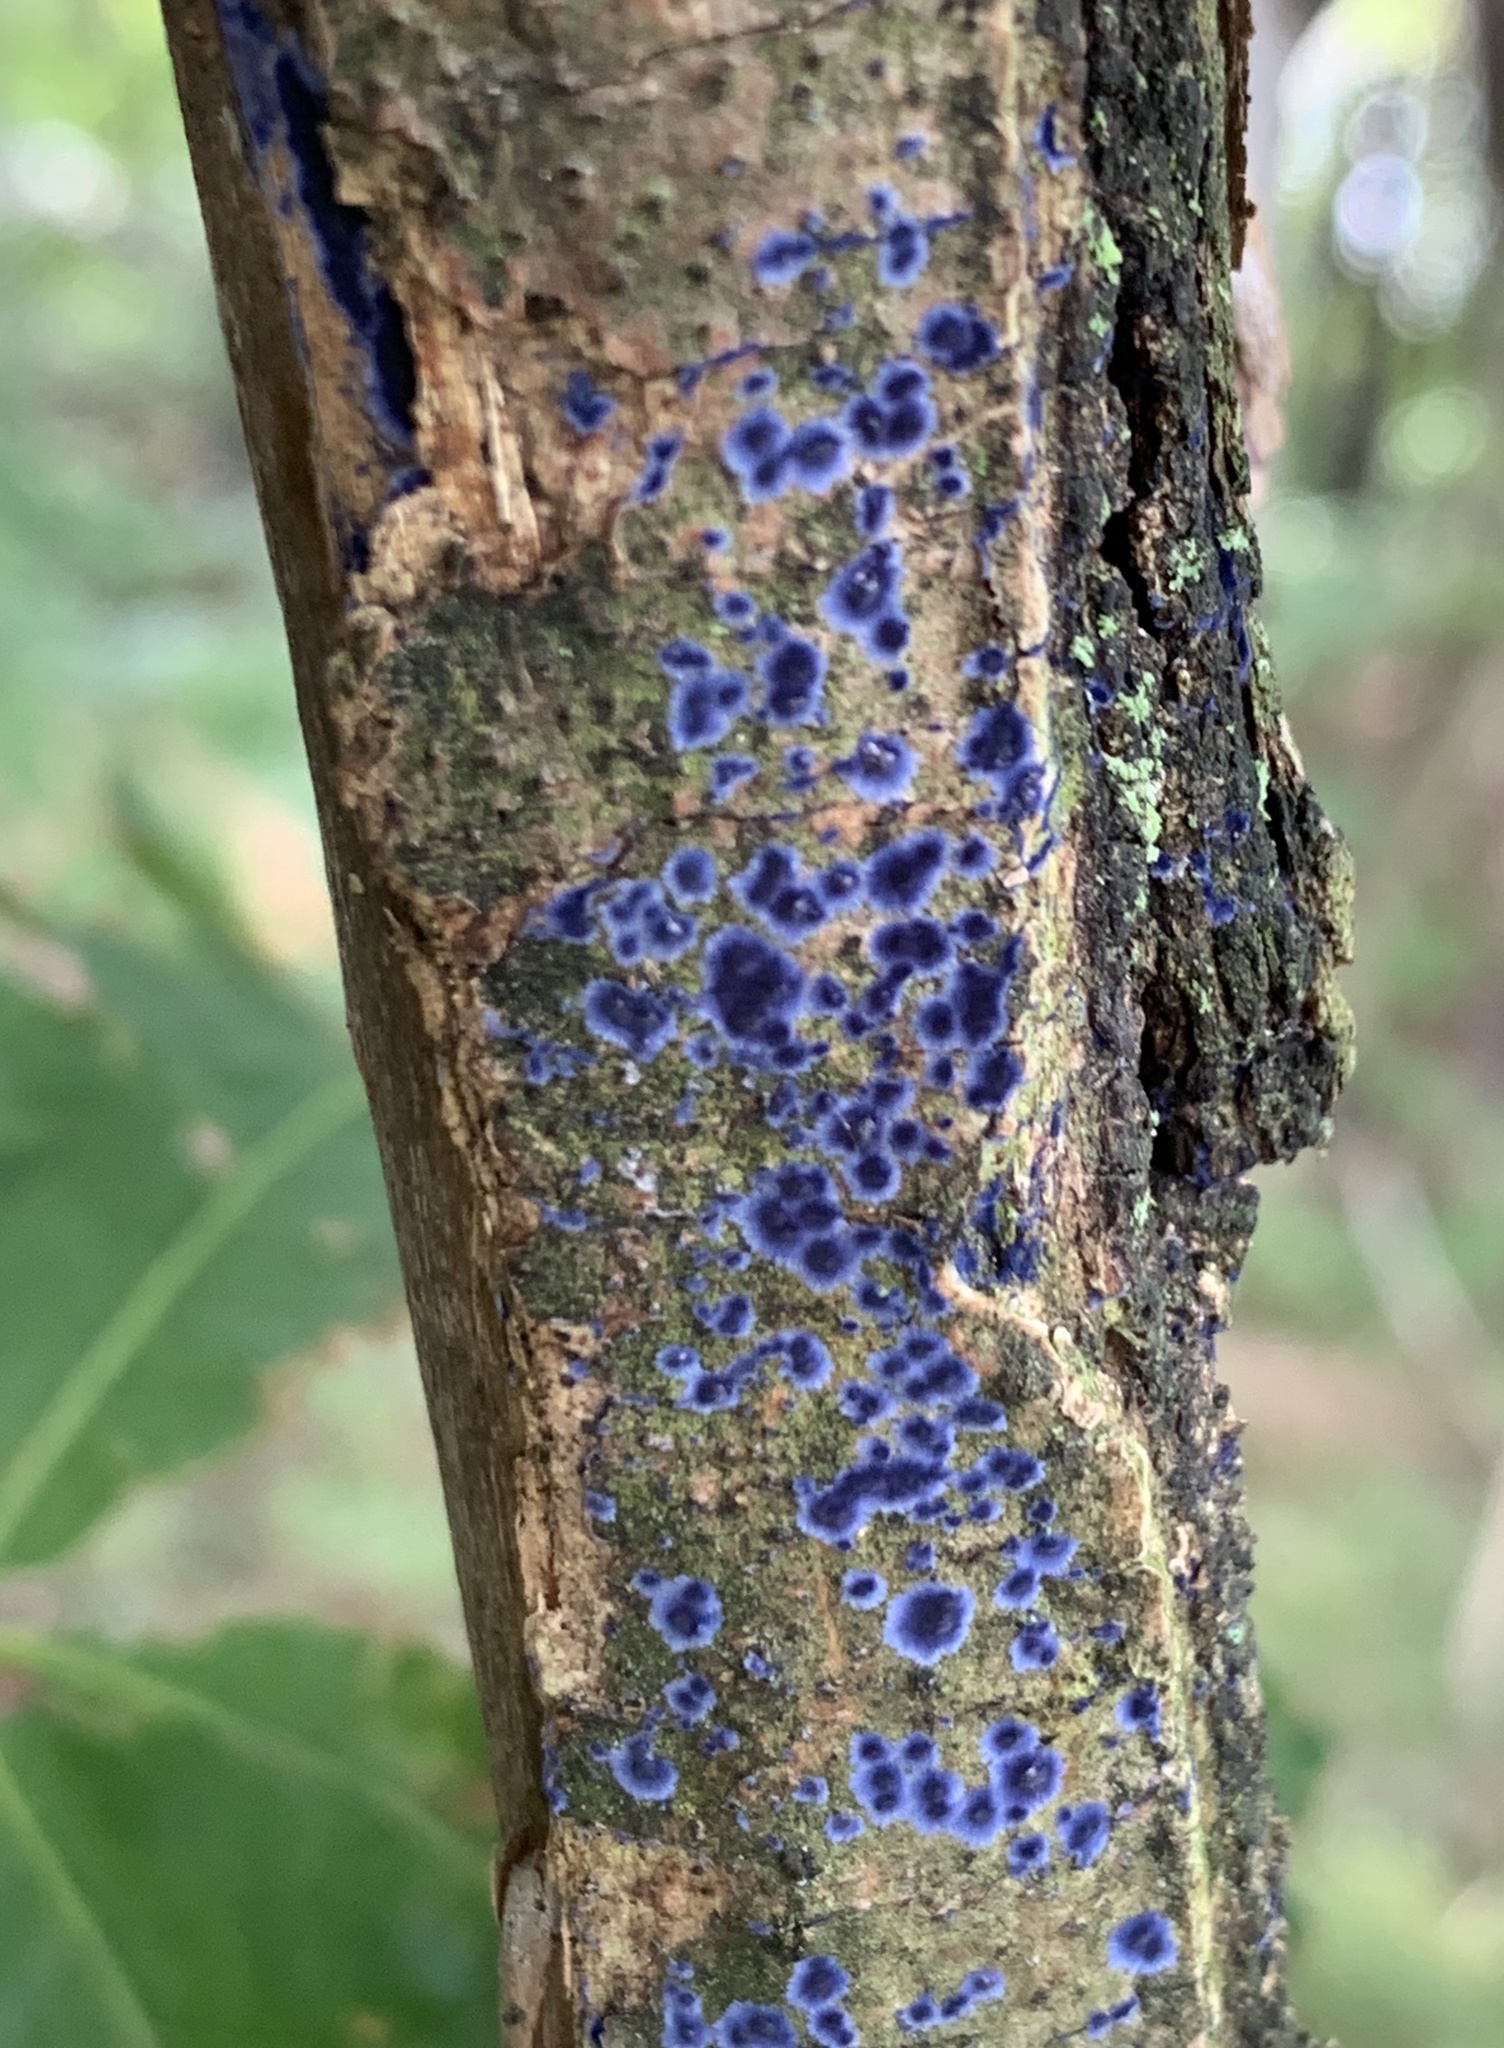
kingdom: Fungi
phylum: Basidiomycota
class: Agaricomycetes
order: Polyporales
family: Phanerochaetaceae
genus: Terana
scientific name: Terana coerulea
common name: Cobalt crust
